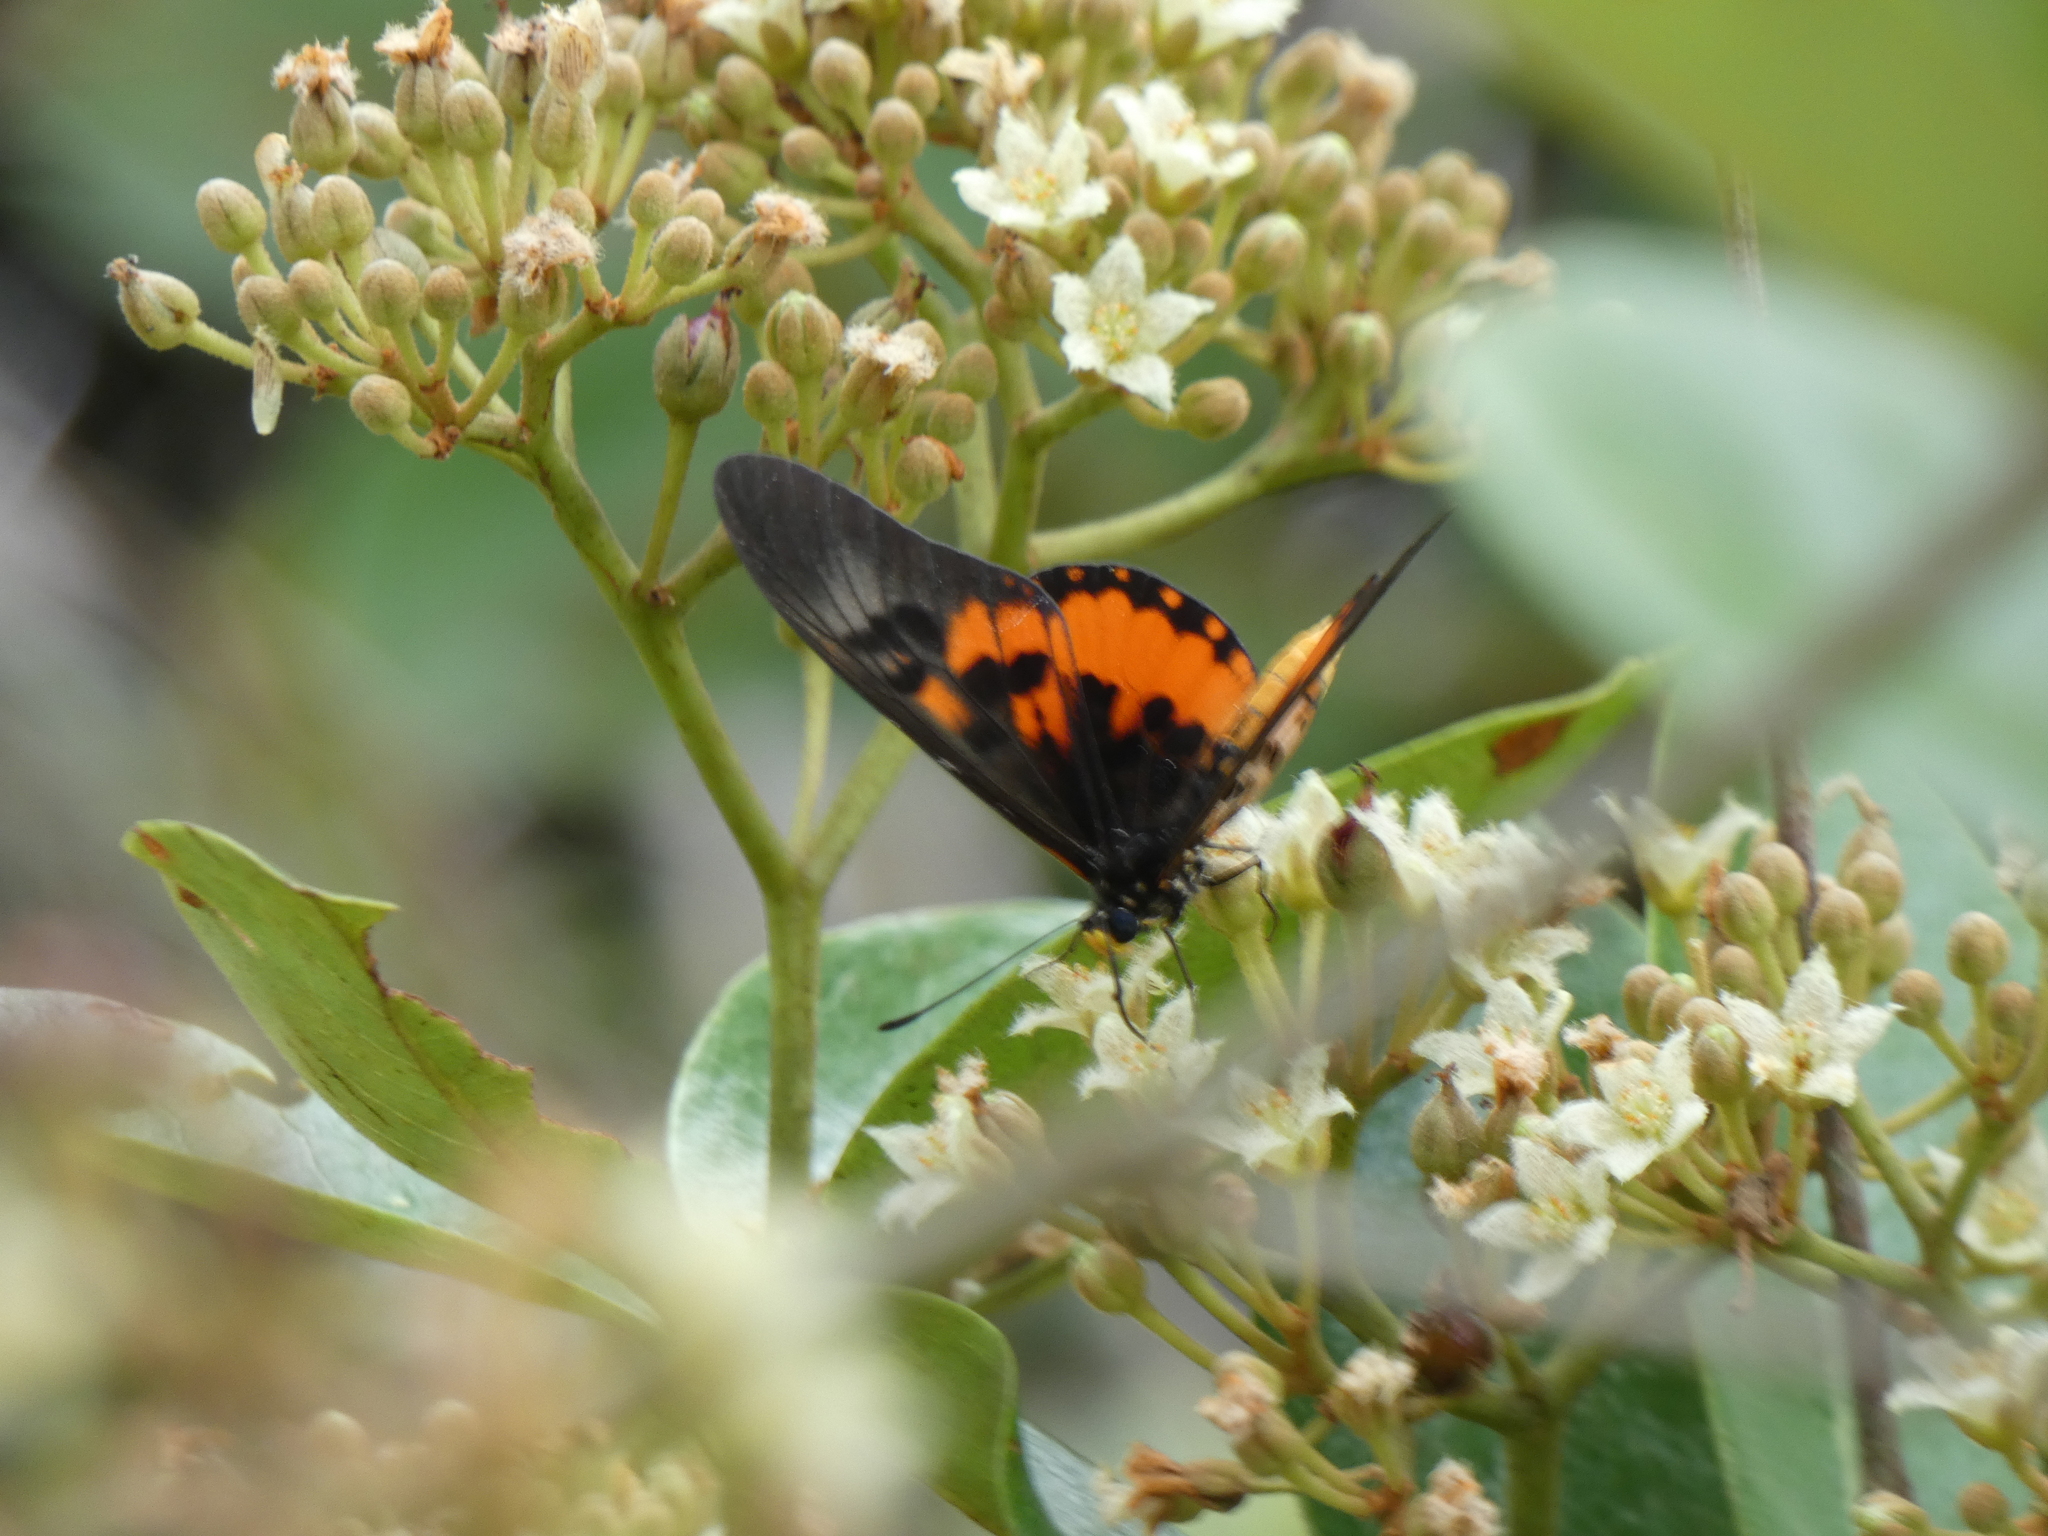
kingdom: Animalia
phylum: Arthropoda
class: Insecta
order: Lepidoptera
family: Nymphalidae
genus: Acraea
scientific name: Acraea
